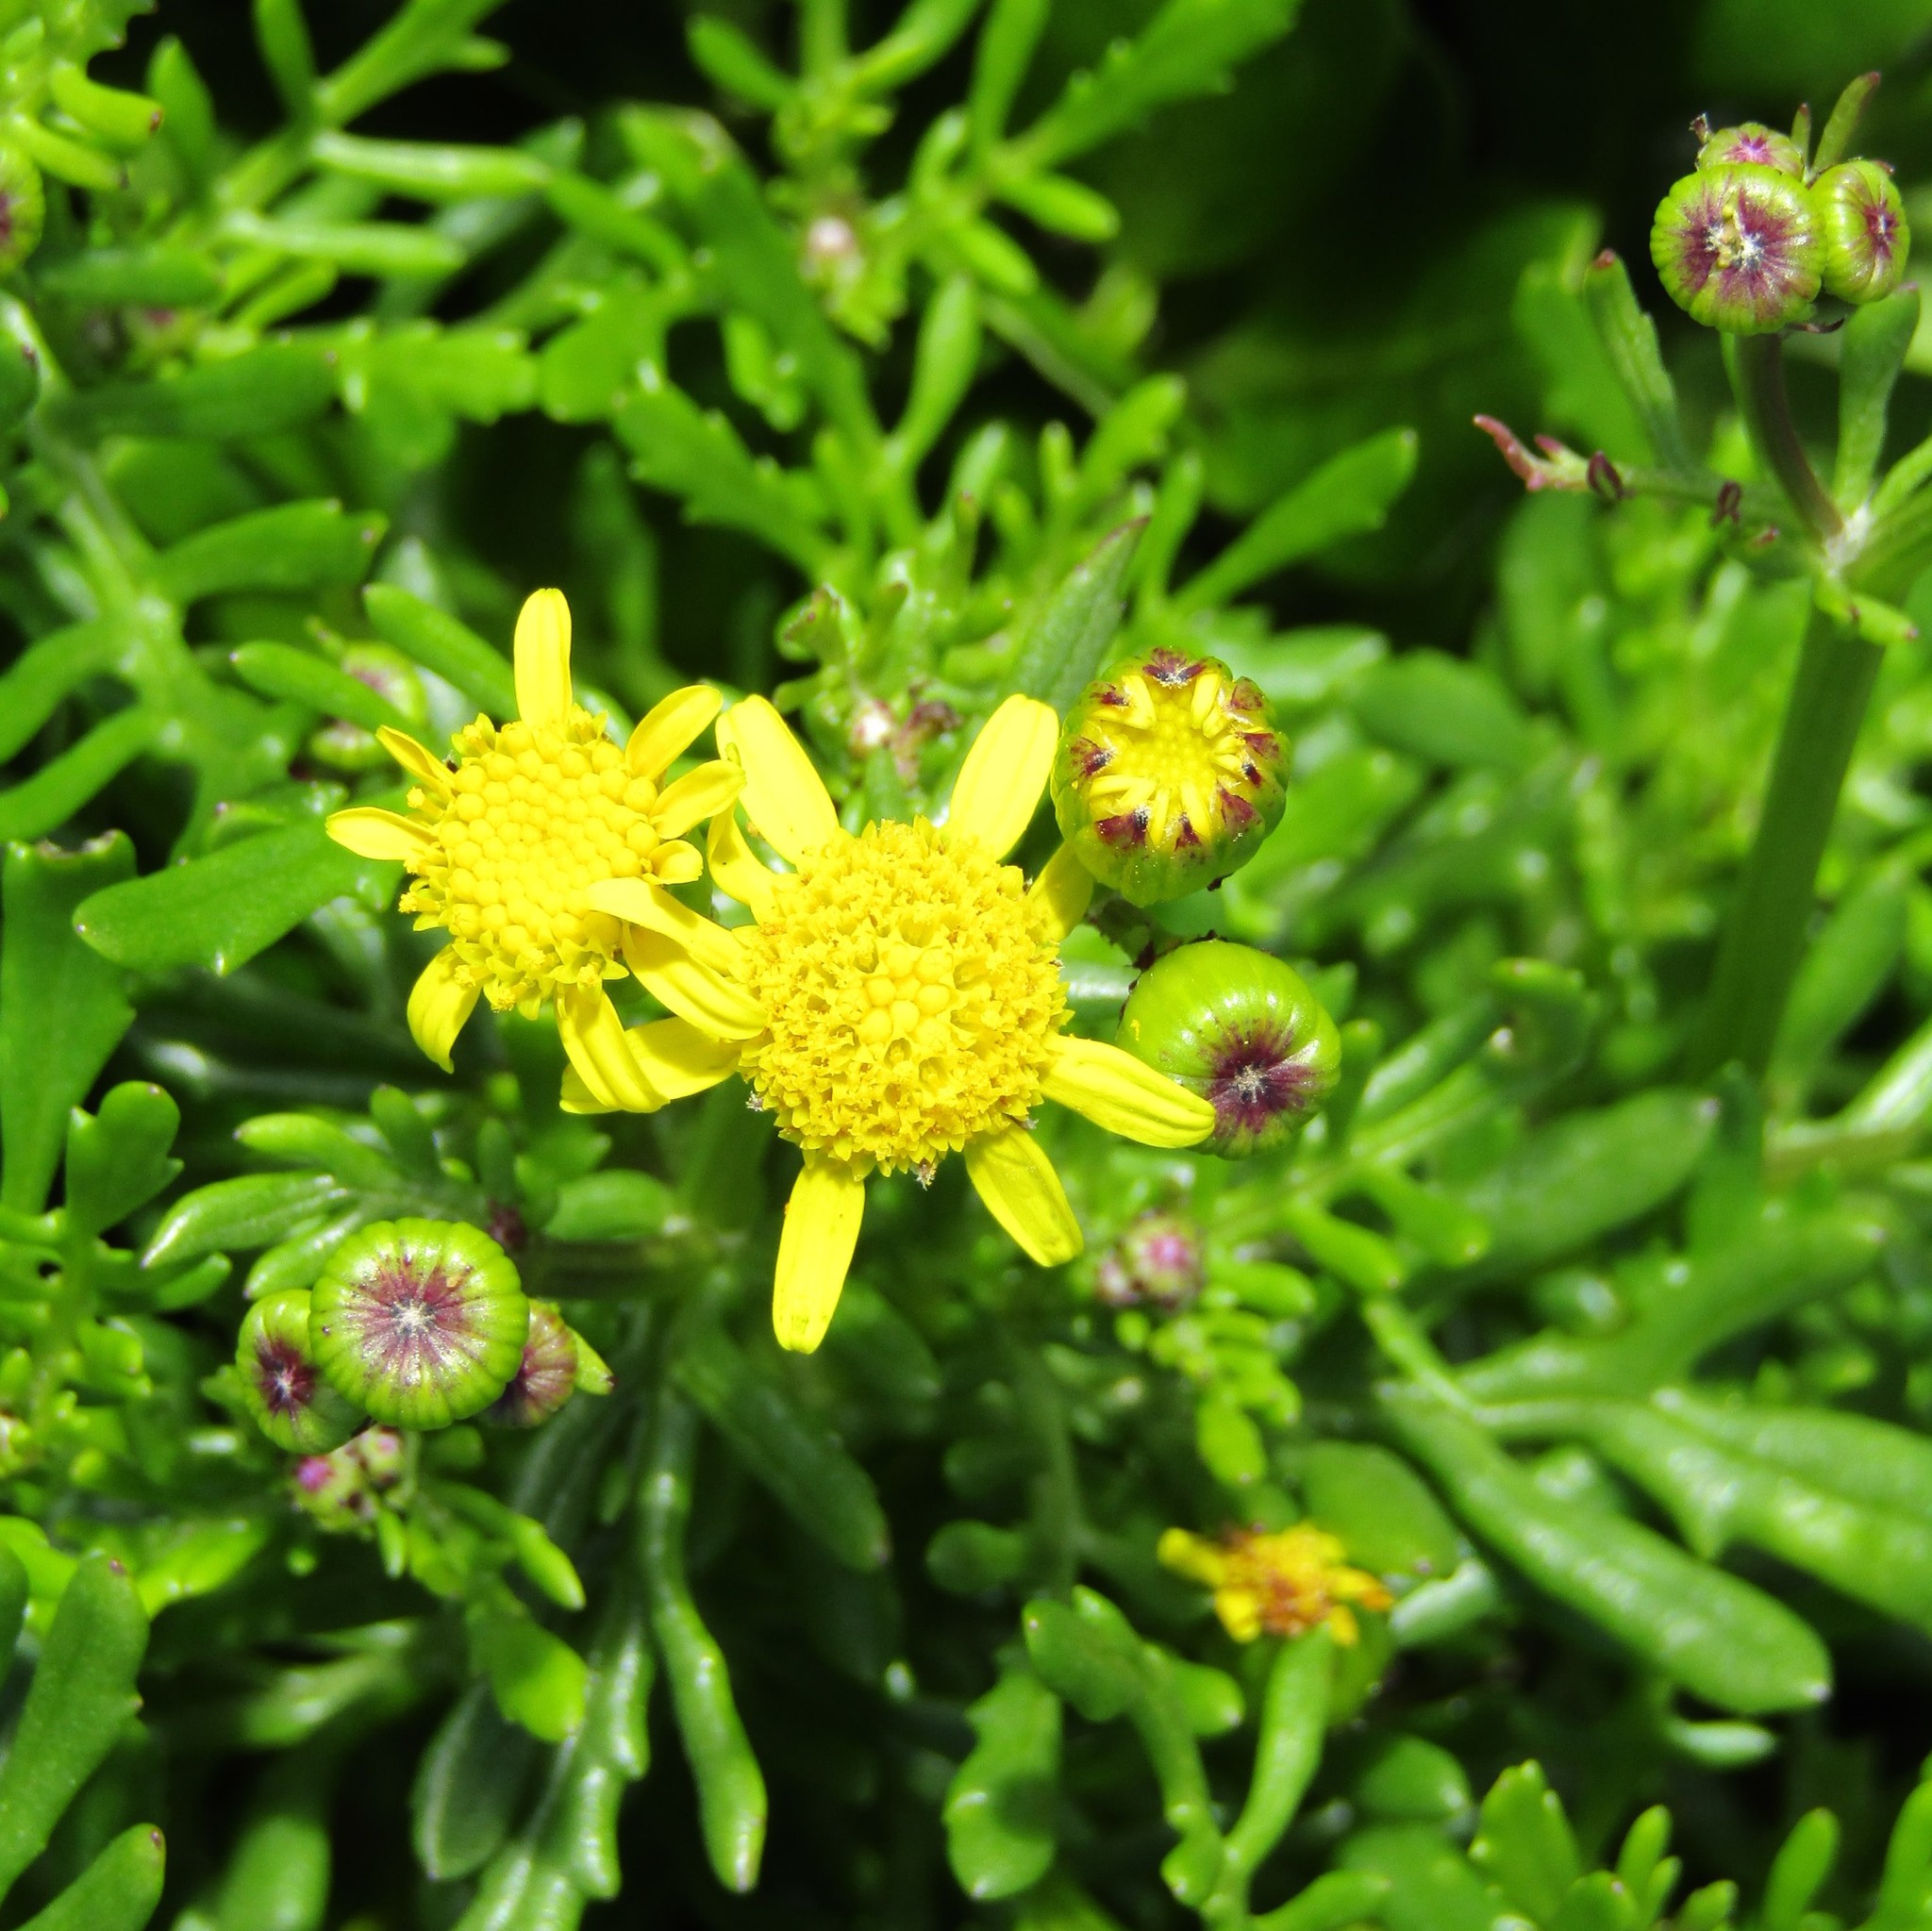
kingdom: Plantae
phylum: Tracheophyta
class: Magnoliopsida
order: Asterales
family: Asteraceae
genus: Senecio
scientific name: Senecio lautus
